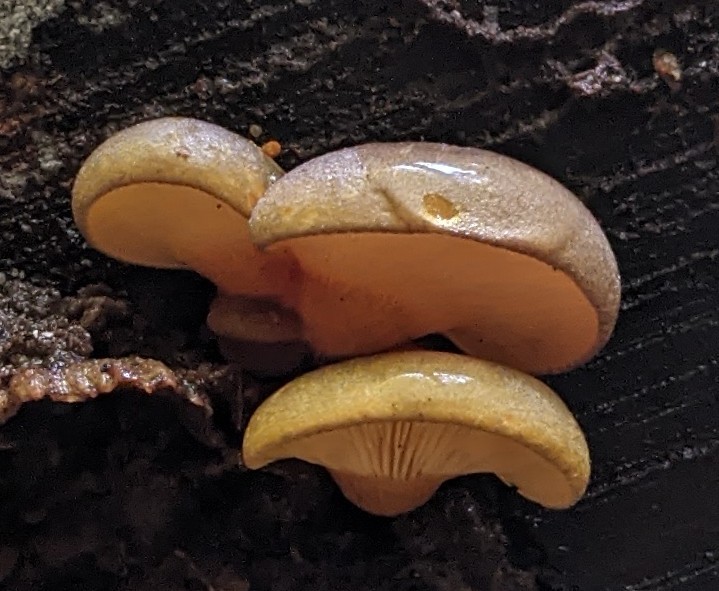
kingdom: Fungi
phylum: Basidiomycota
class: Agaricomycetes
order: Agaricales
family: Sarcomyxaceae
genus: Sarcomyxa
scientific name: Sarcomyxa serotina
